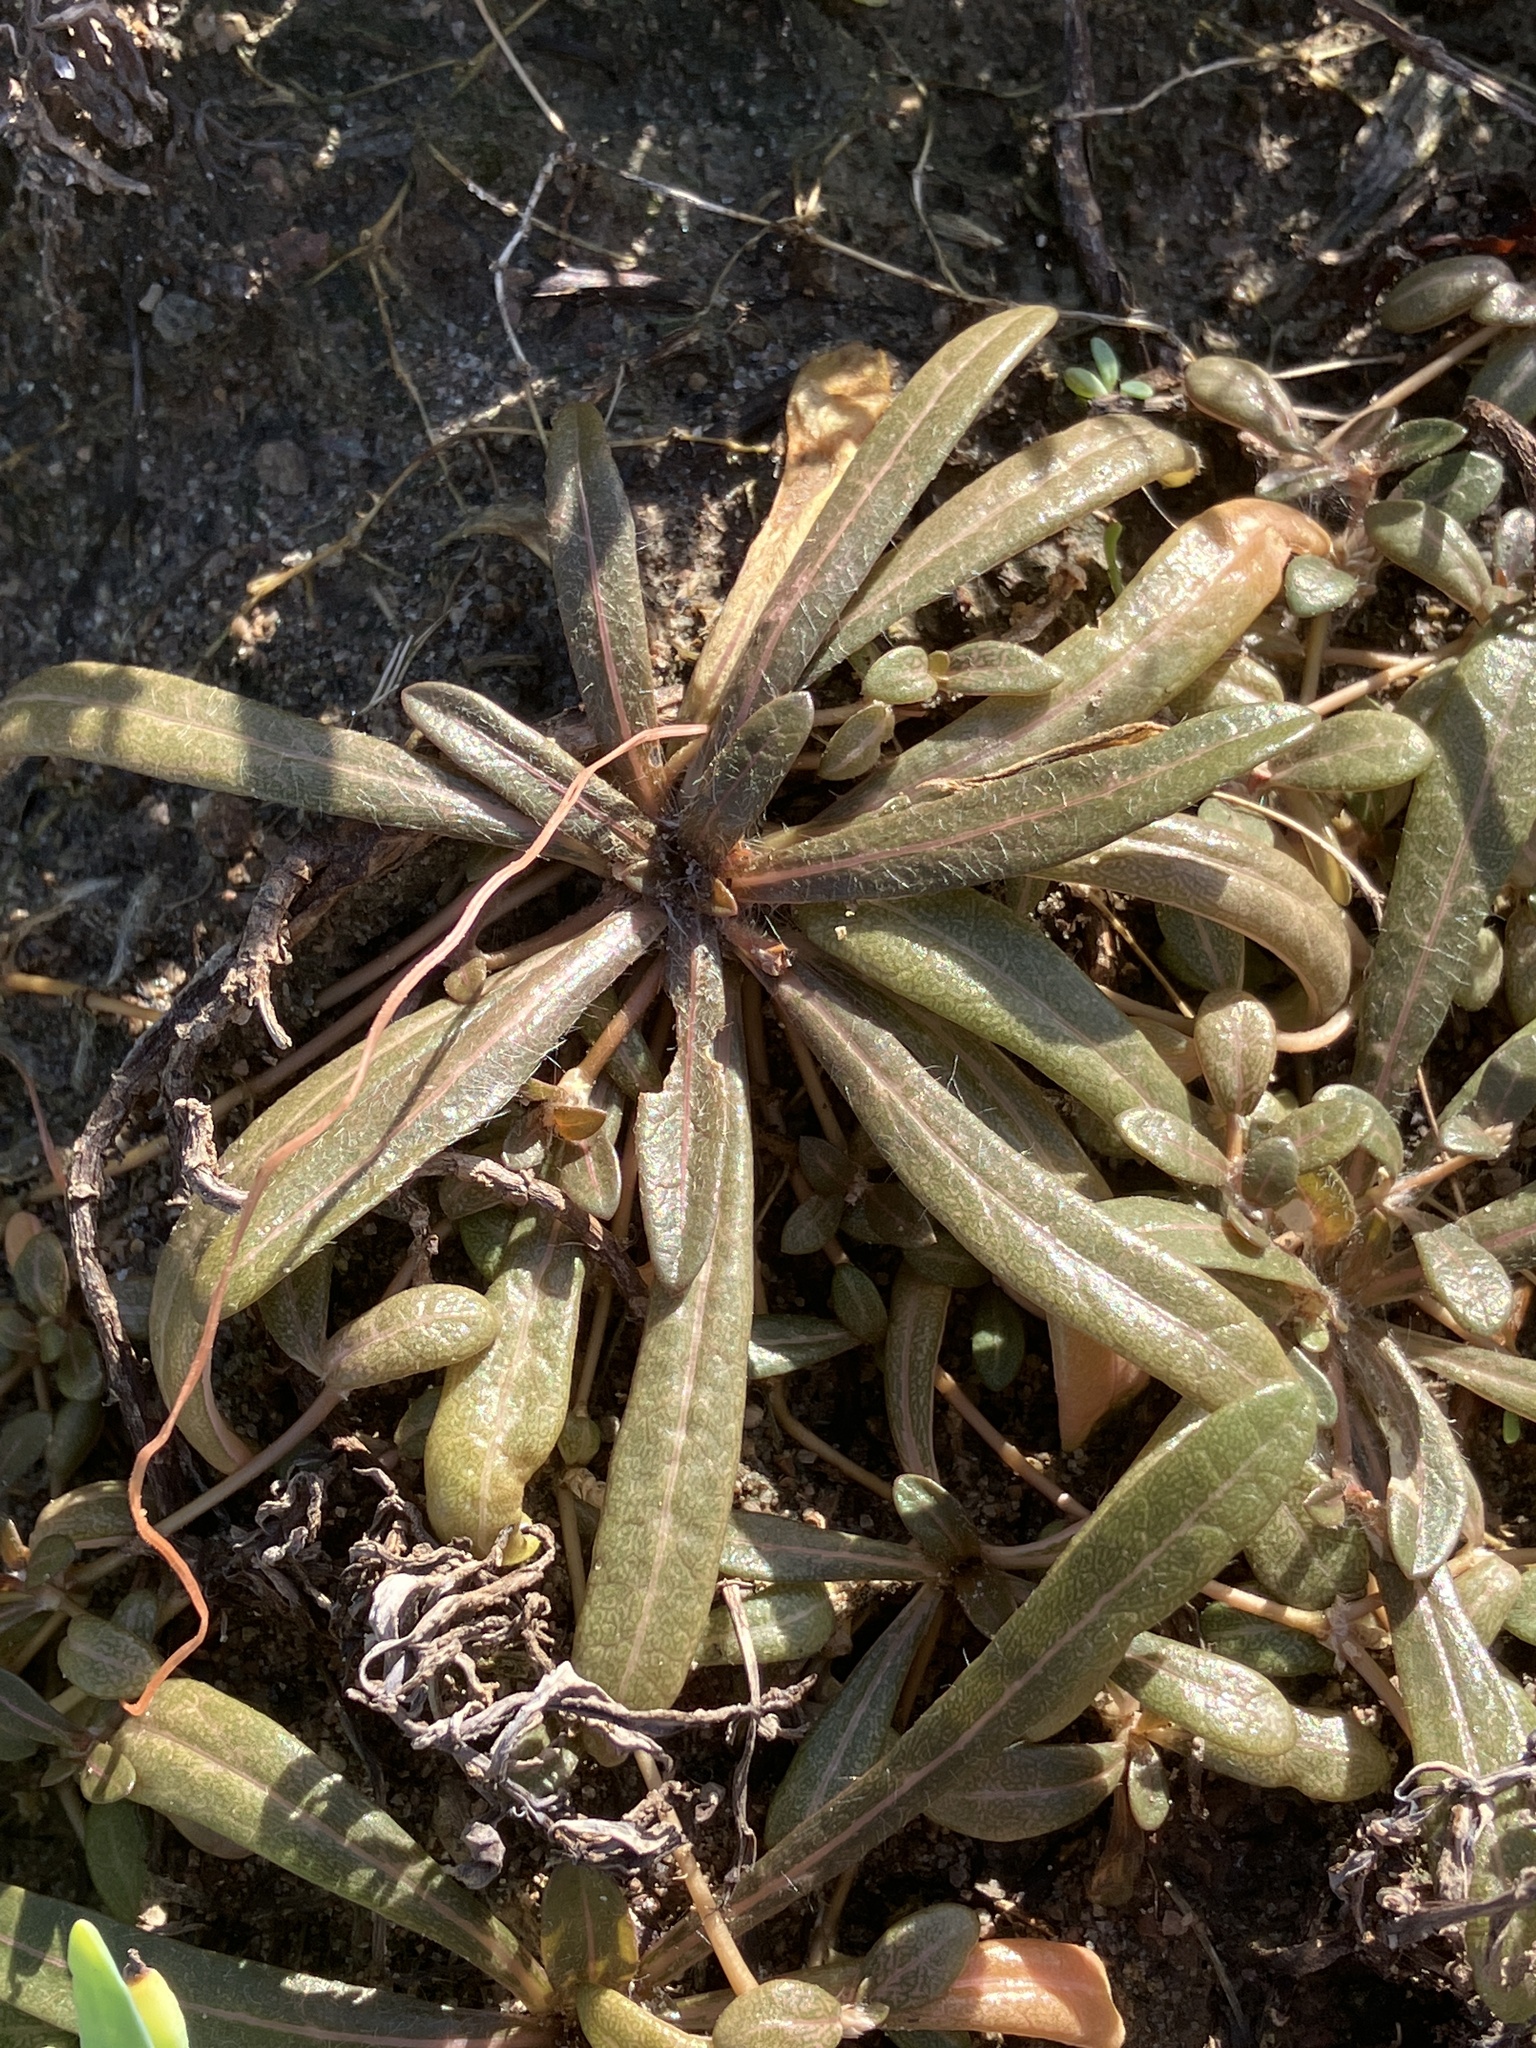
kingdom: Plantae
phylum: Tracheophyta
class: Magnoliopsida
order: Caryophyllales
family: Amaranthaceae
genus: Gomphrena
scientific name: Gomphrena muscoides
